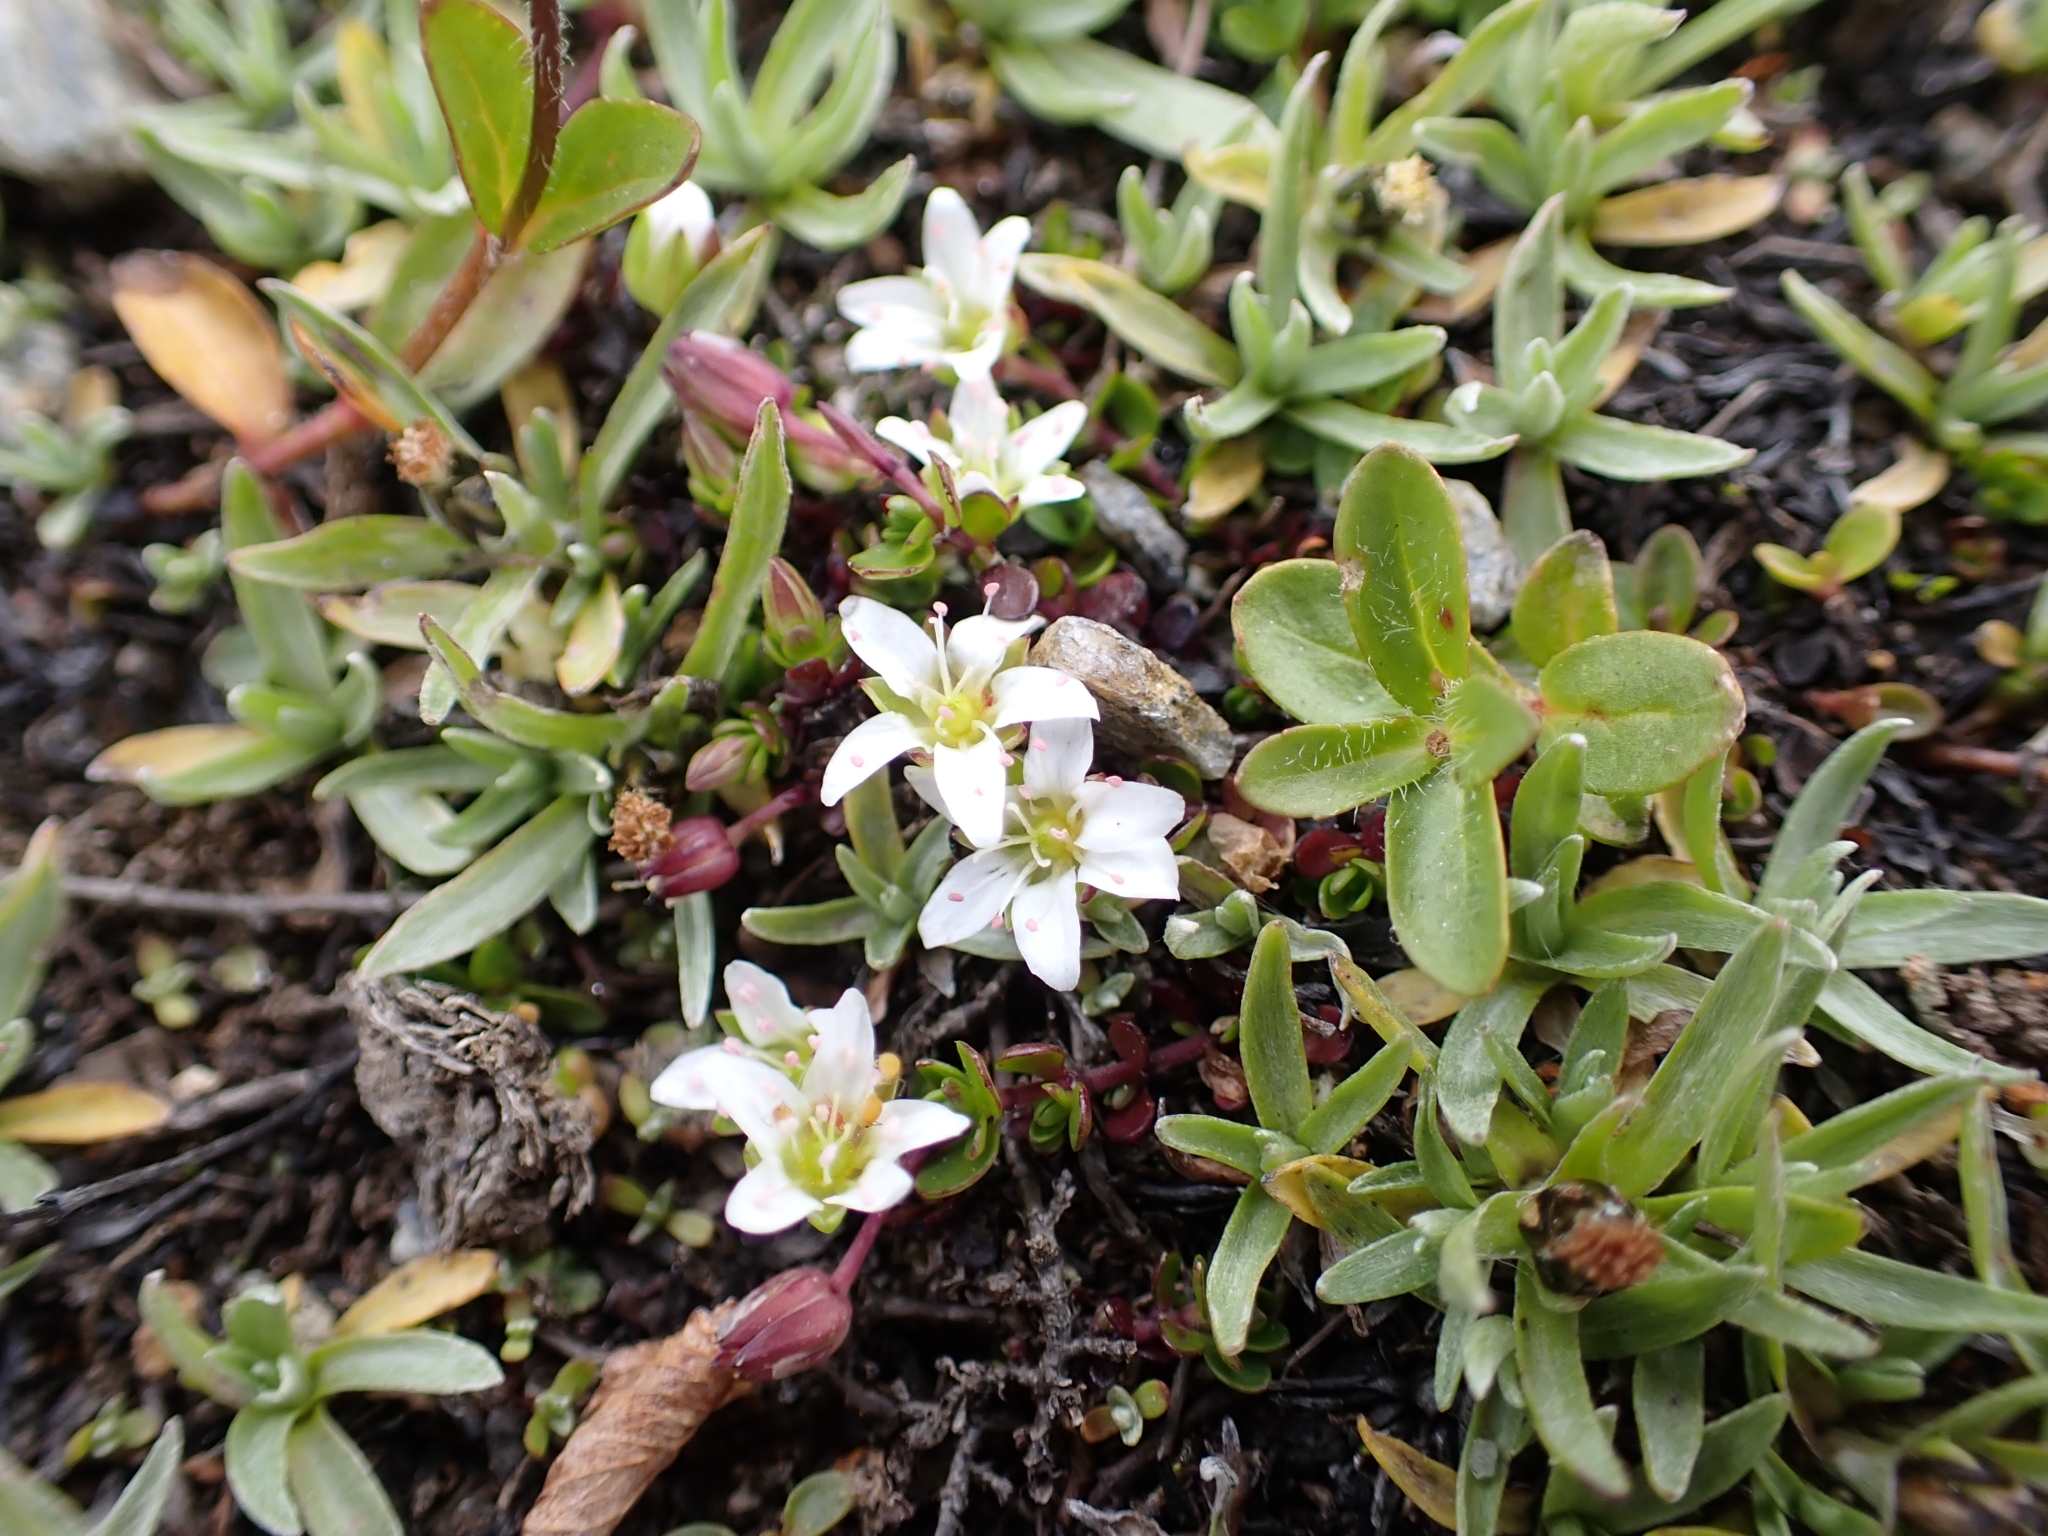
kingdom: Plantae
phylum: Tracheophyta
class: Magnoliopsida
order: Caryophyllales
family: Caryophyllaceae
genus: Arenaria
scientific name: Arenaria biflora
